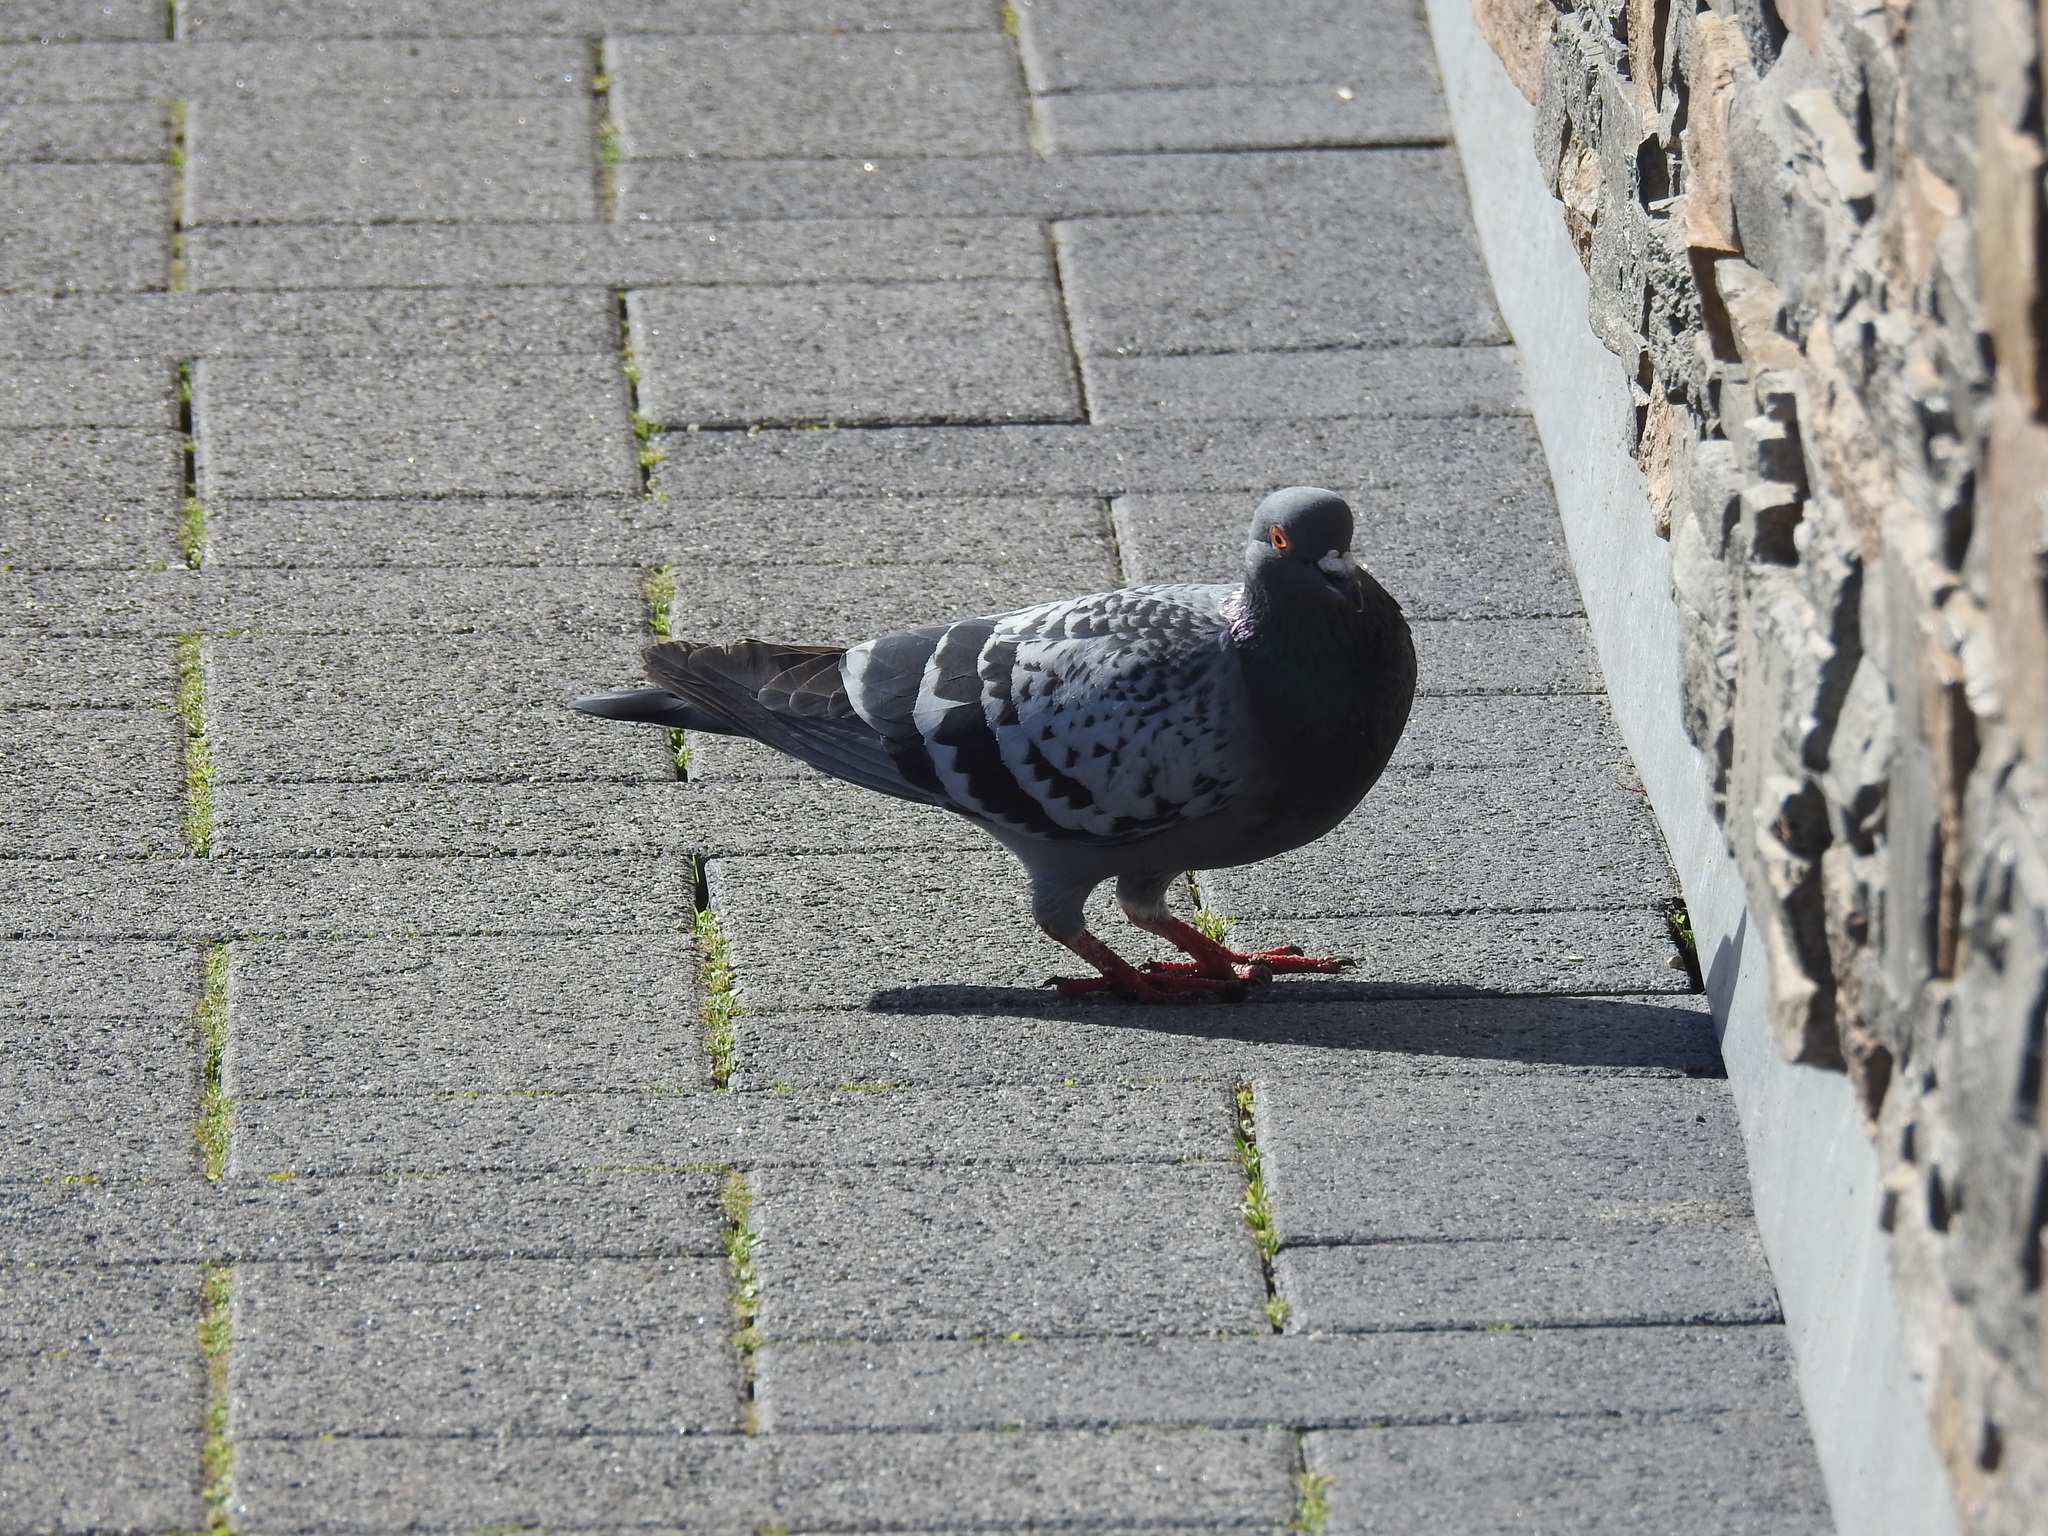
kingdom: Animalia
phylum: Chordata
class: Aves
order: Columbiformes
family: Columbidae
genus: Columba
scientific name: Columba livia
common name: Rock pigeon
